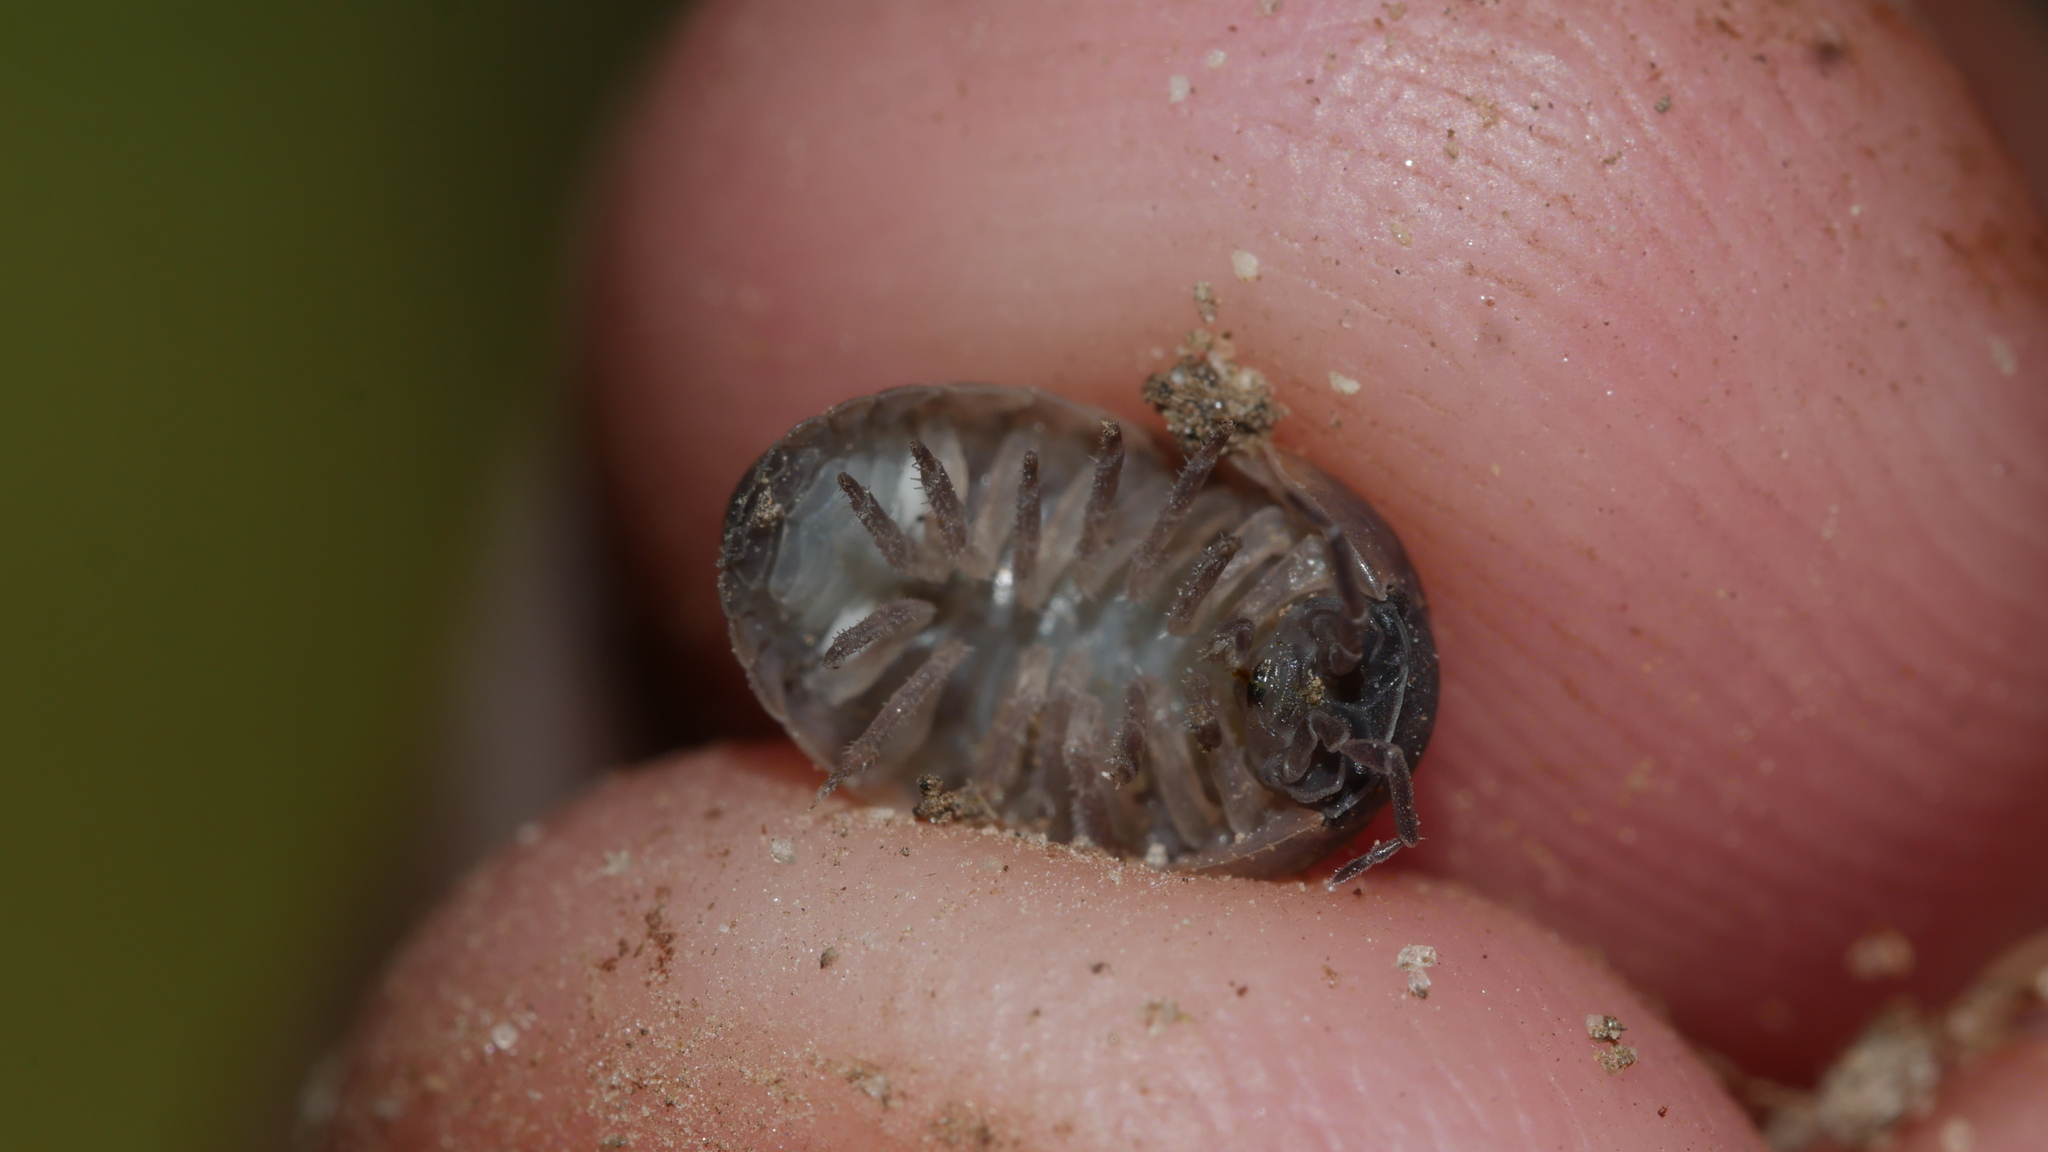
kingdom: Animalia
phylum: Arthropoda
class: Malacostraca
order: Isopoda
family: Armadillidiidae
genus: Armadillidium
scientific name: Armadillidium vulgare
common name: Common pill woodlouse
